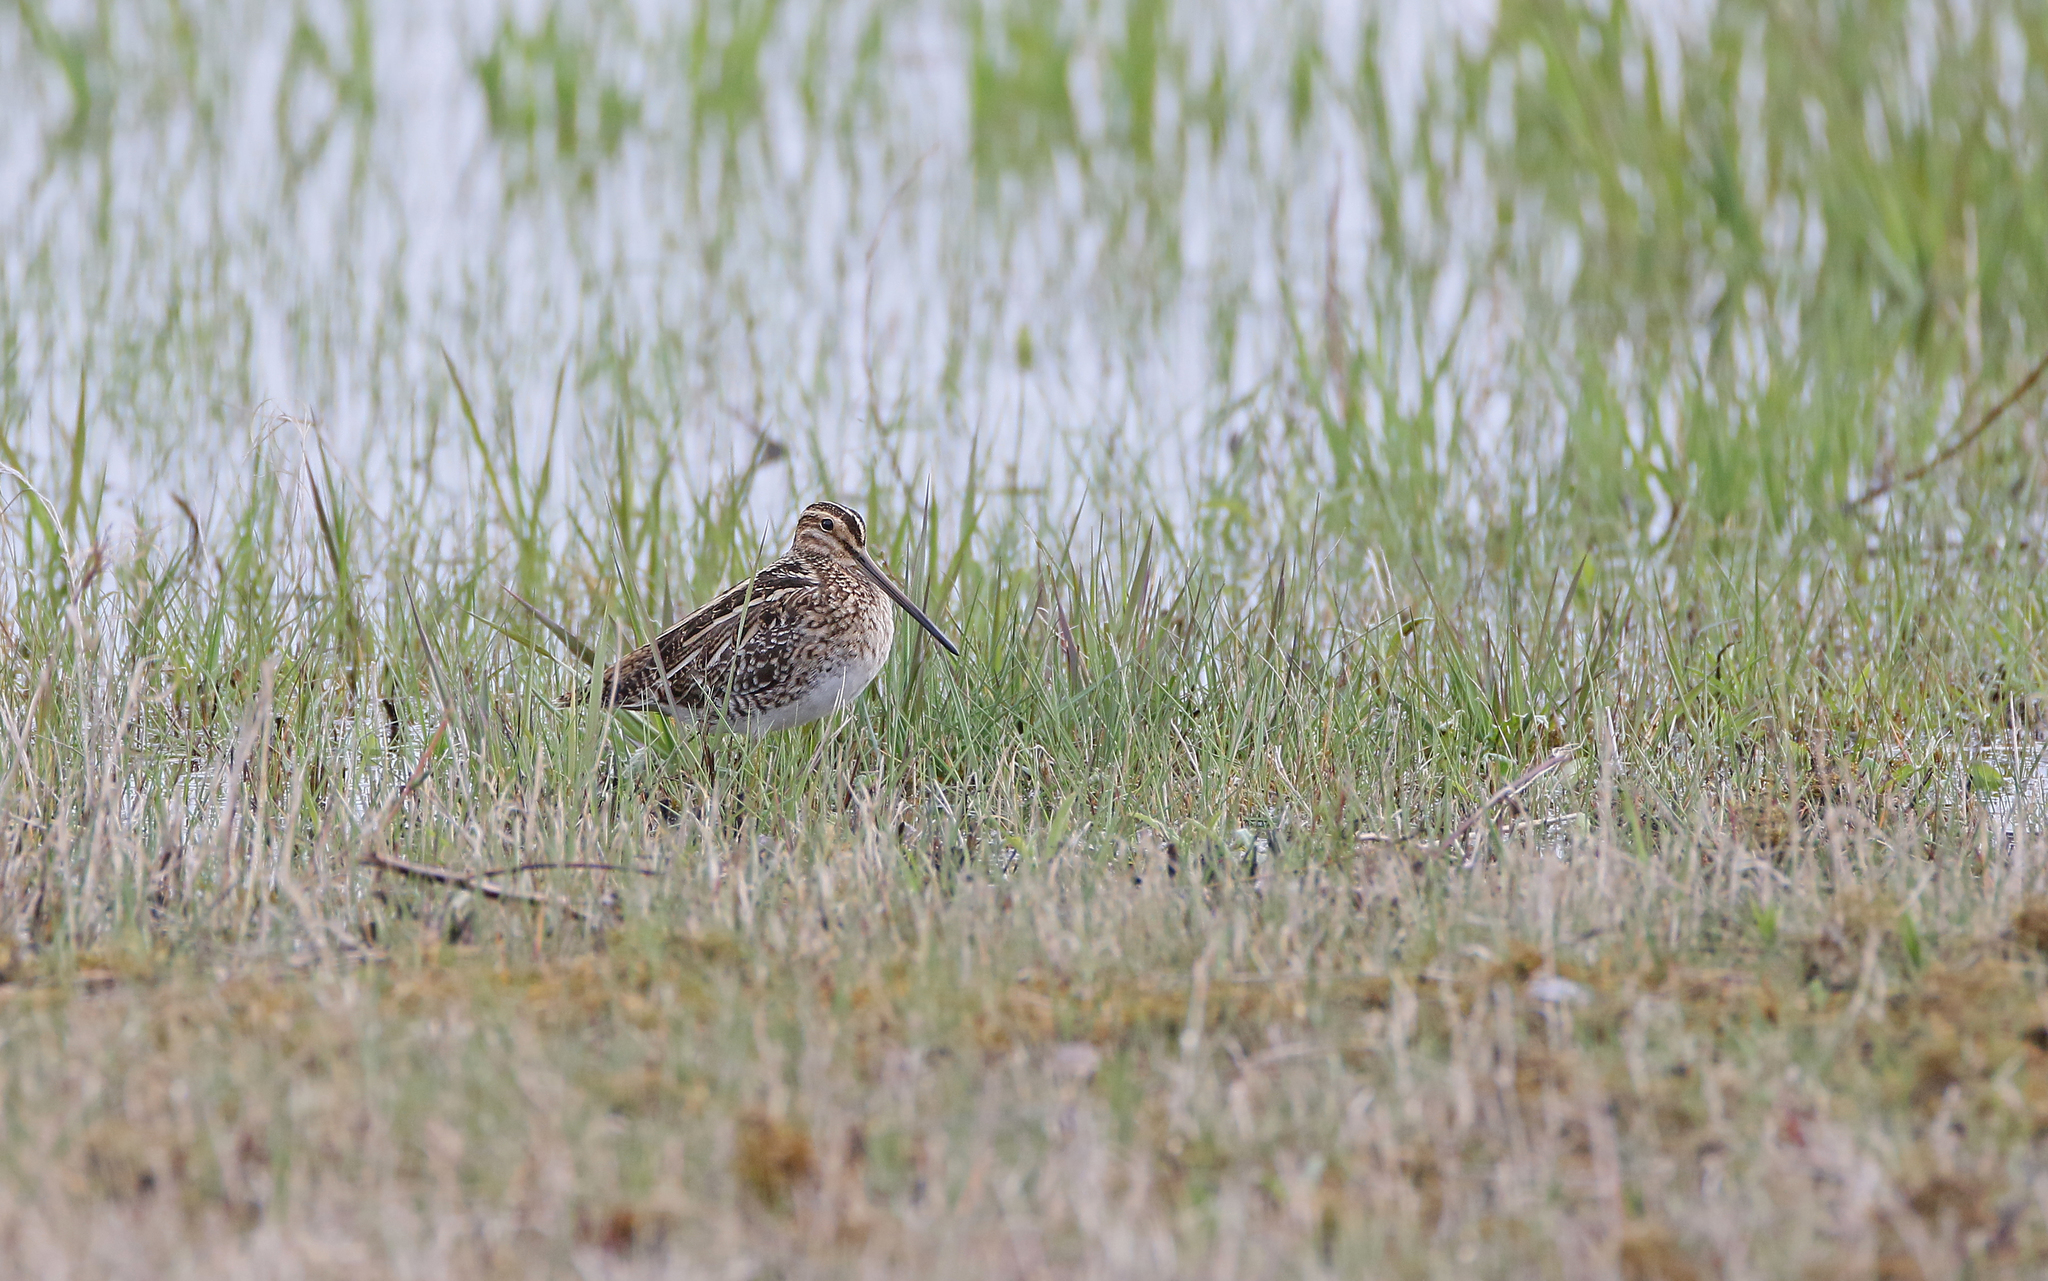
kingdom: Animalia
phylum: Chordata
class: Aves
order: Charadriiformes
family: Scolopacidae
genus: Gallinago
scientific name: Gallinago gallinago
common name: Common snipe
